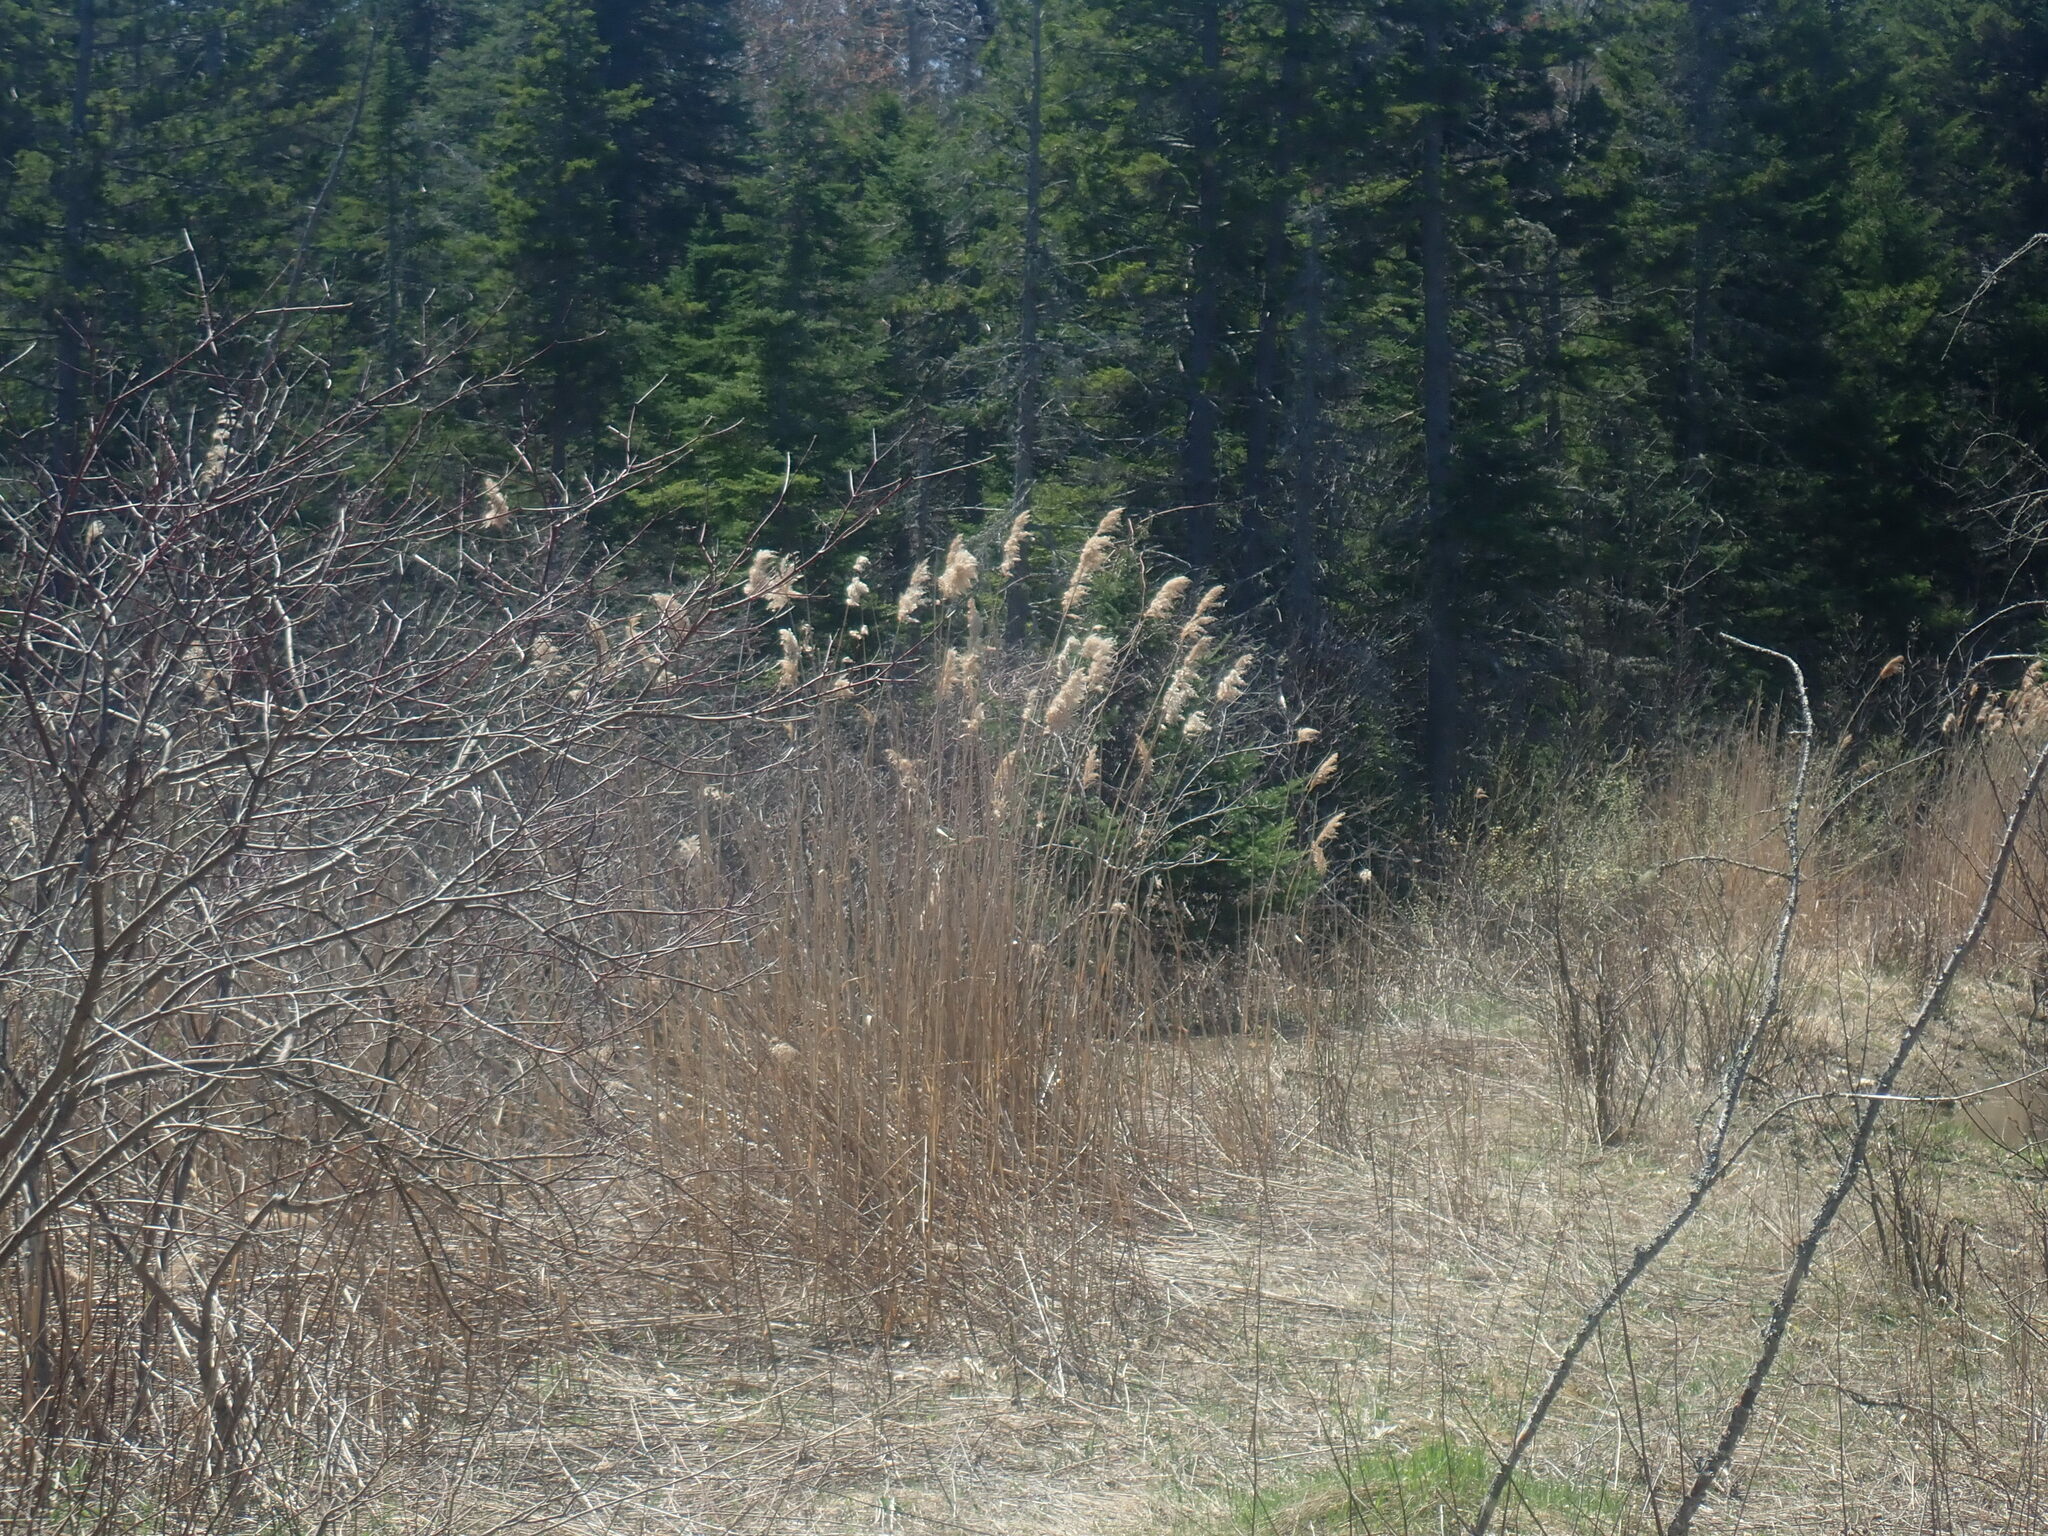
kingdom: Plantae
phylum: Tracheophyta
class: Liliopsida
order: Poales
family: Poaceae
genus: Phragmites
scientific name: Phragmites australis
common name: Common reed
